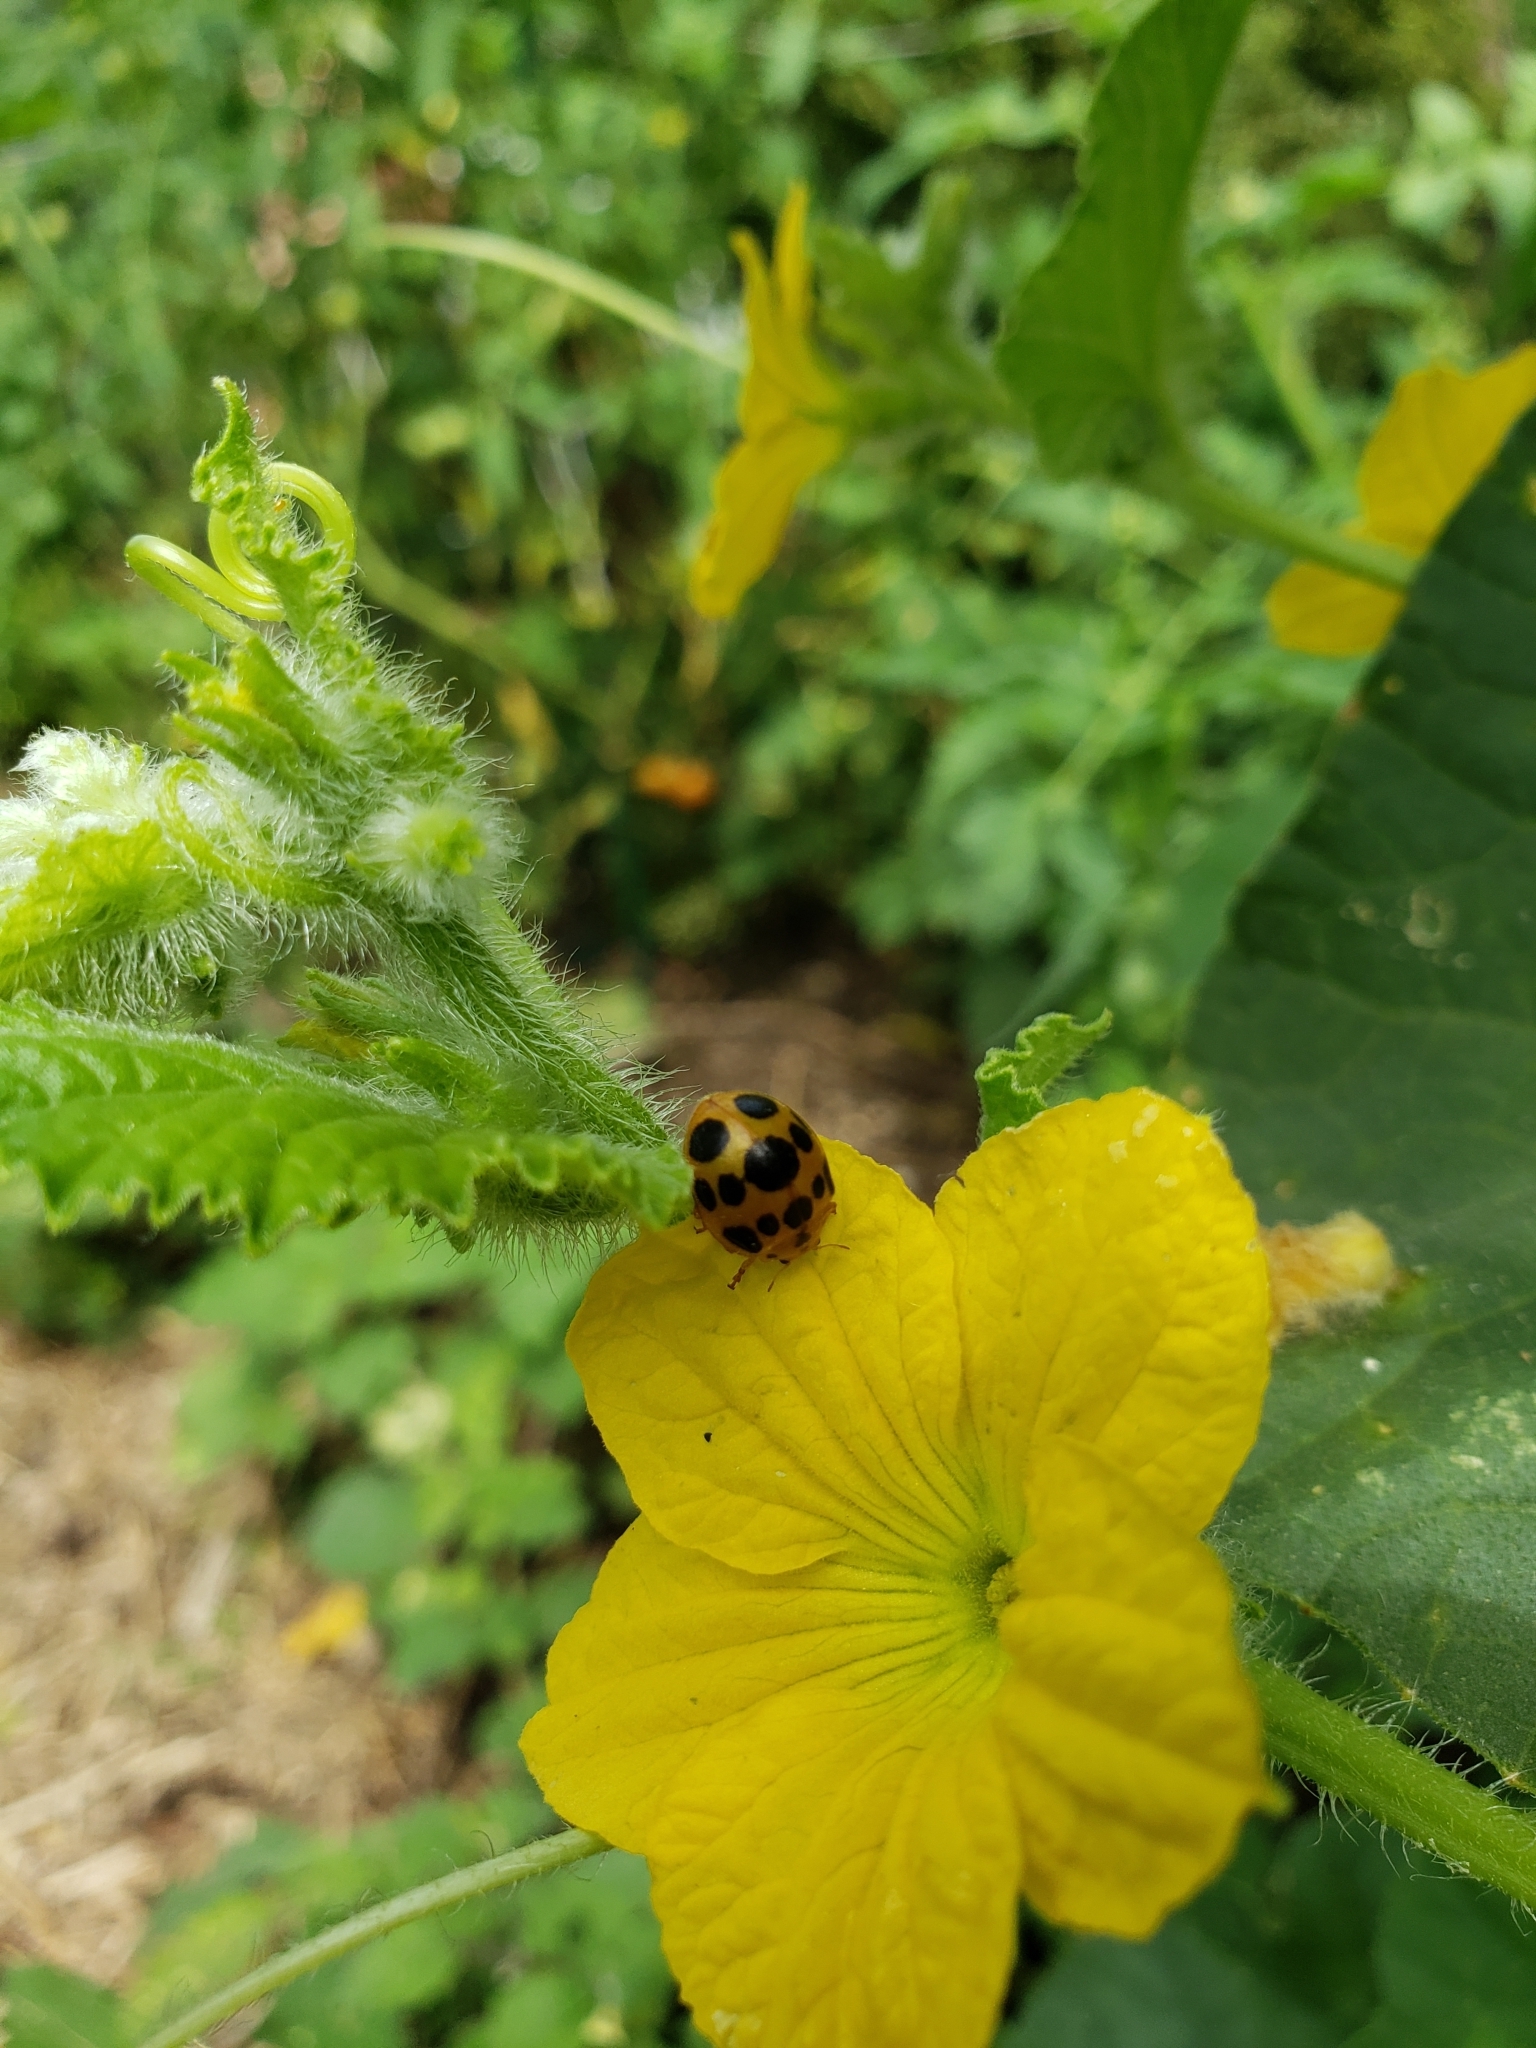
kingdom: Animalia
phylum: Arthropoda
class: Insecta
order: Coleoptera
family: Coccinellidae
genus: Epilachna
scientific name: Epilachna borealis
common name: Squash beetle
